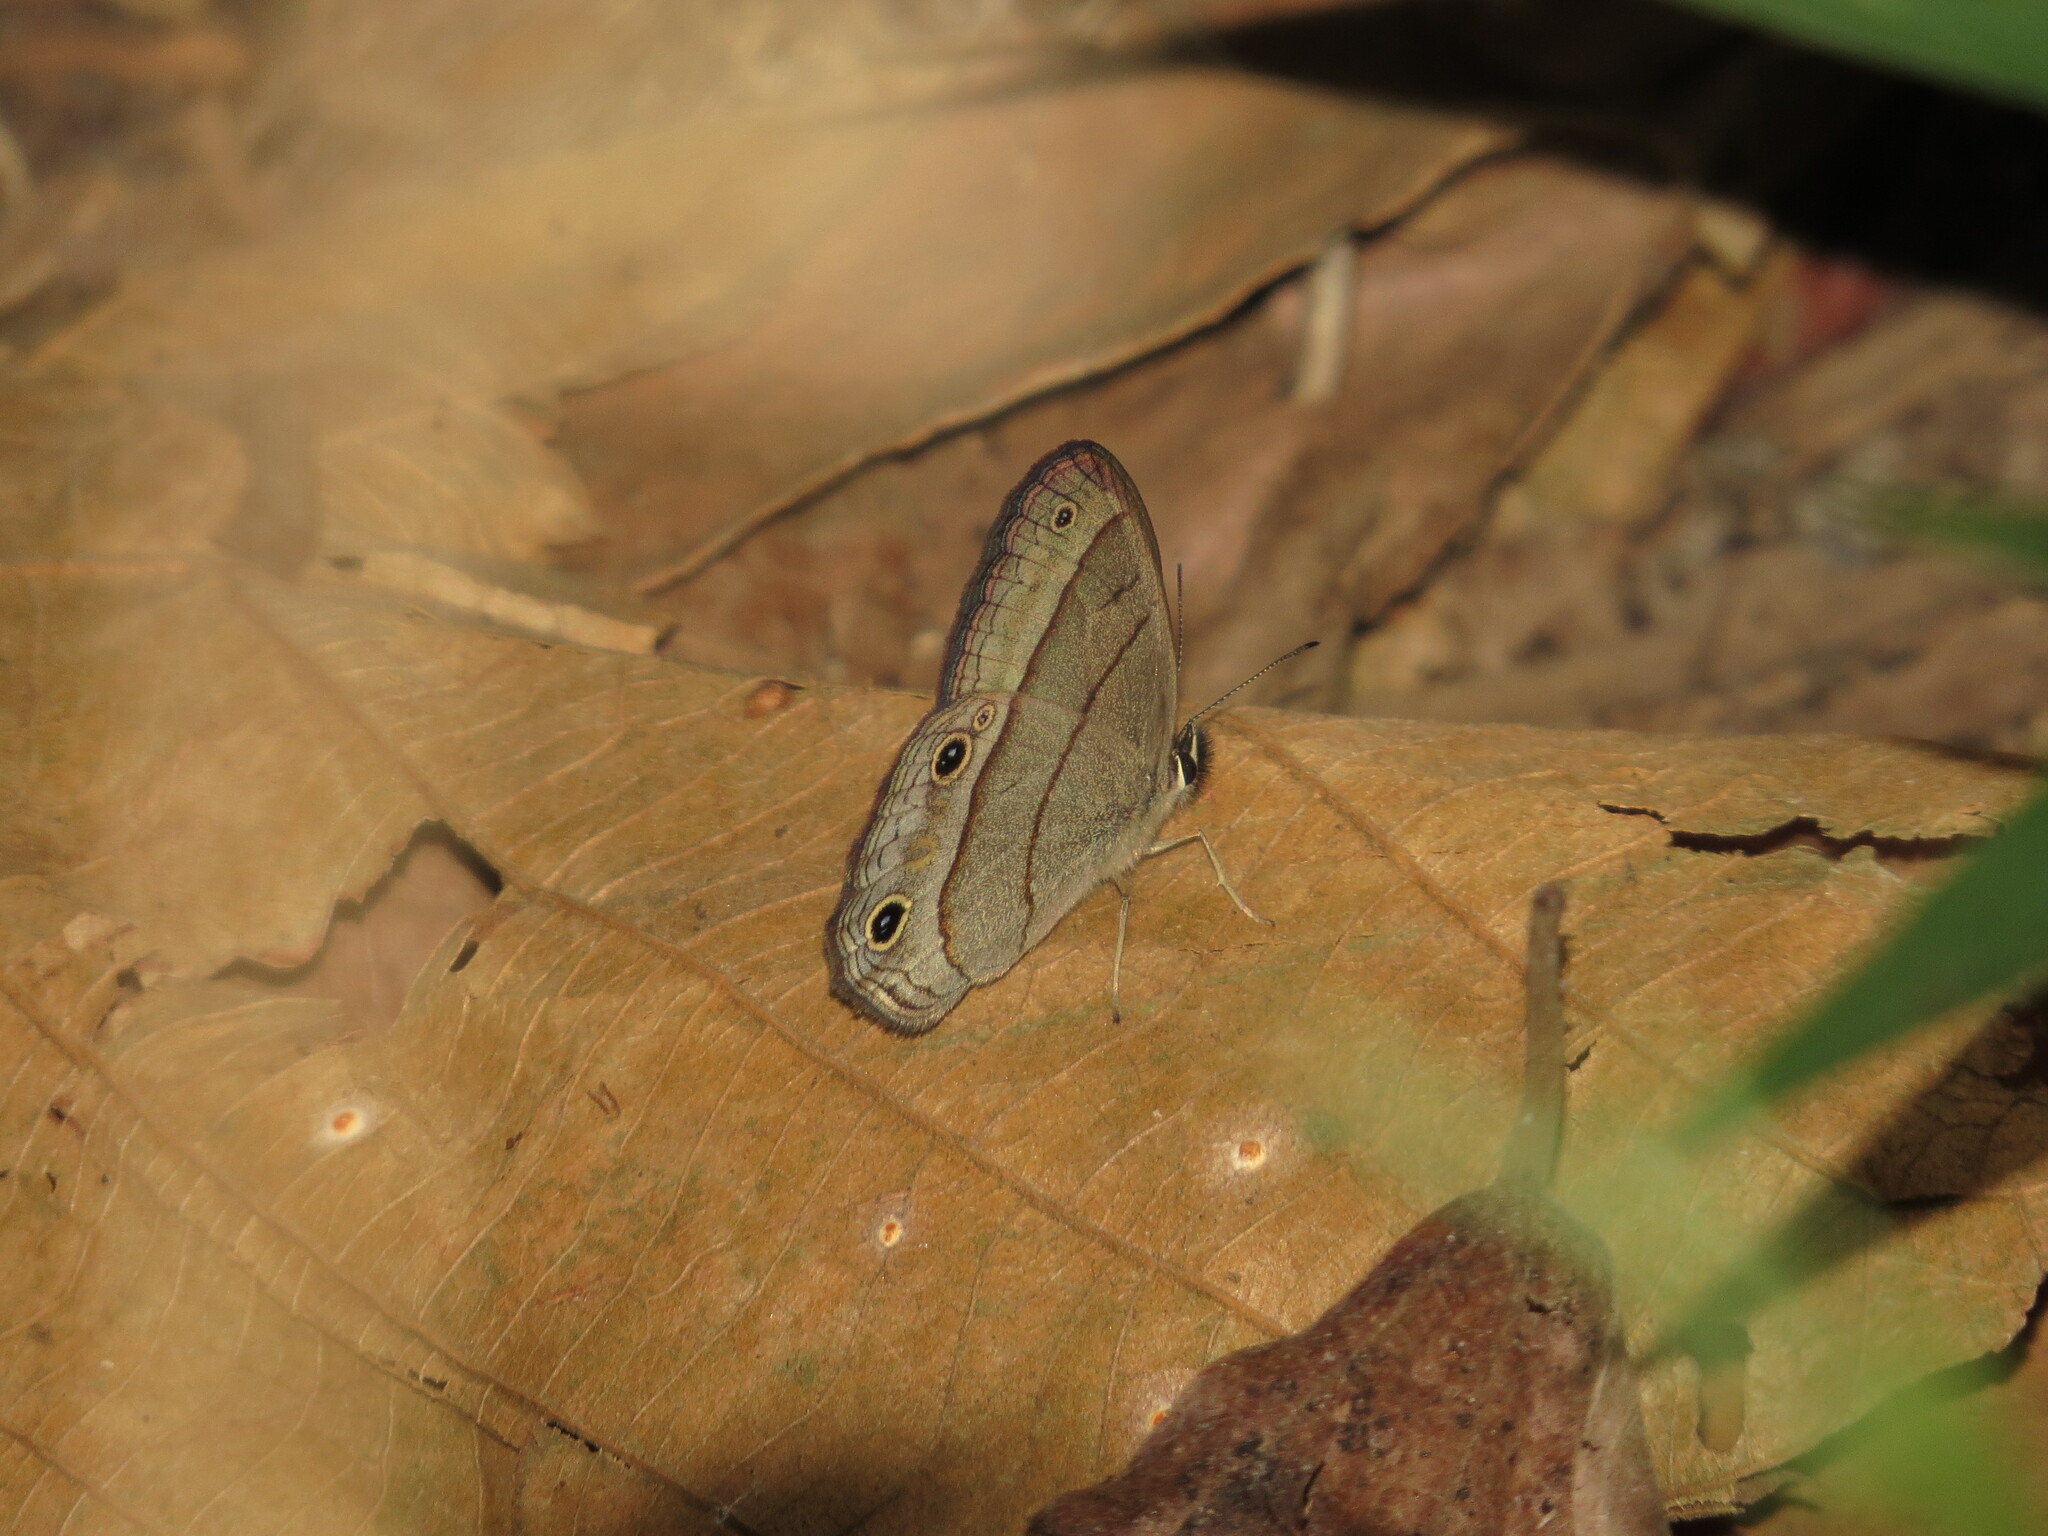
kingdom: Animalia
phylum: Arthropoda
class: Insecta
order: Lepidoptera
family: Nymphalidae
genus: Euptychia
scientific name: Euptychia Cissia pompilia
